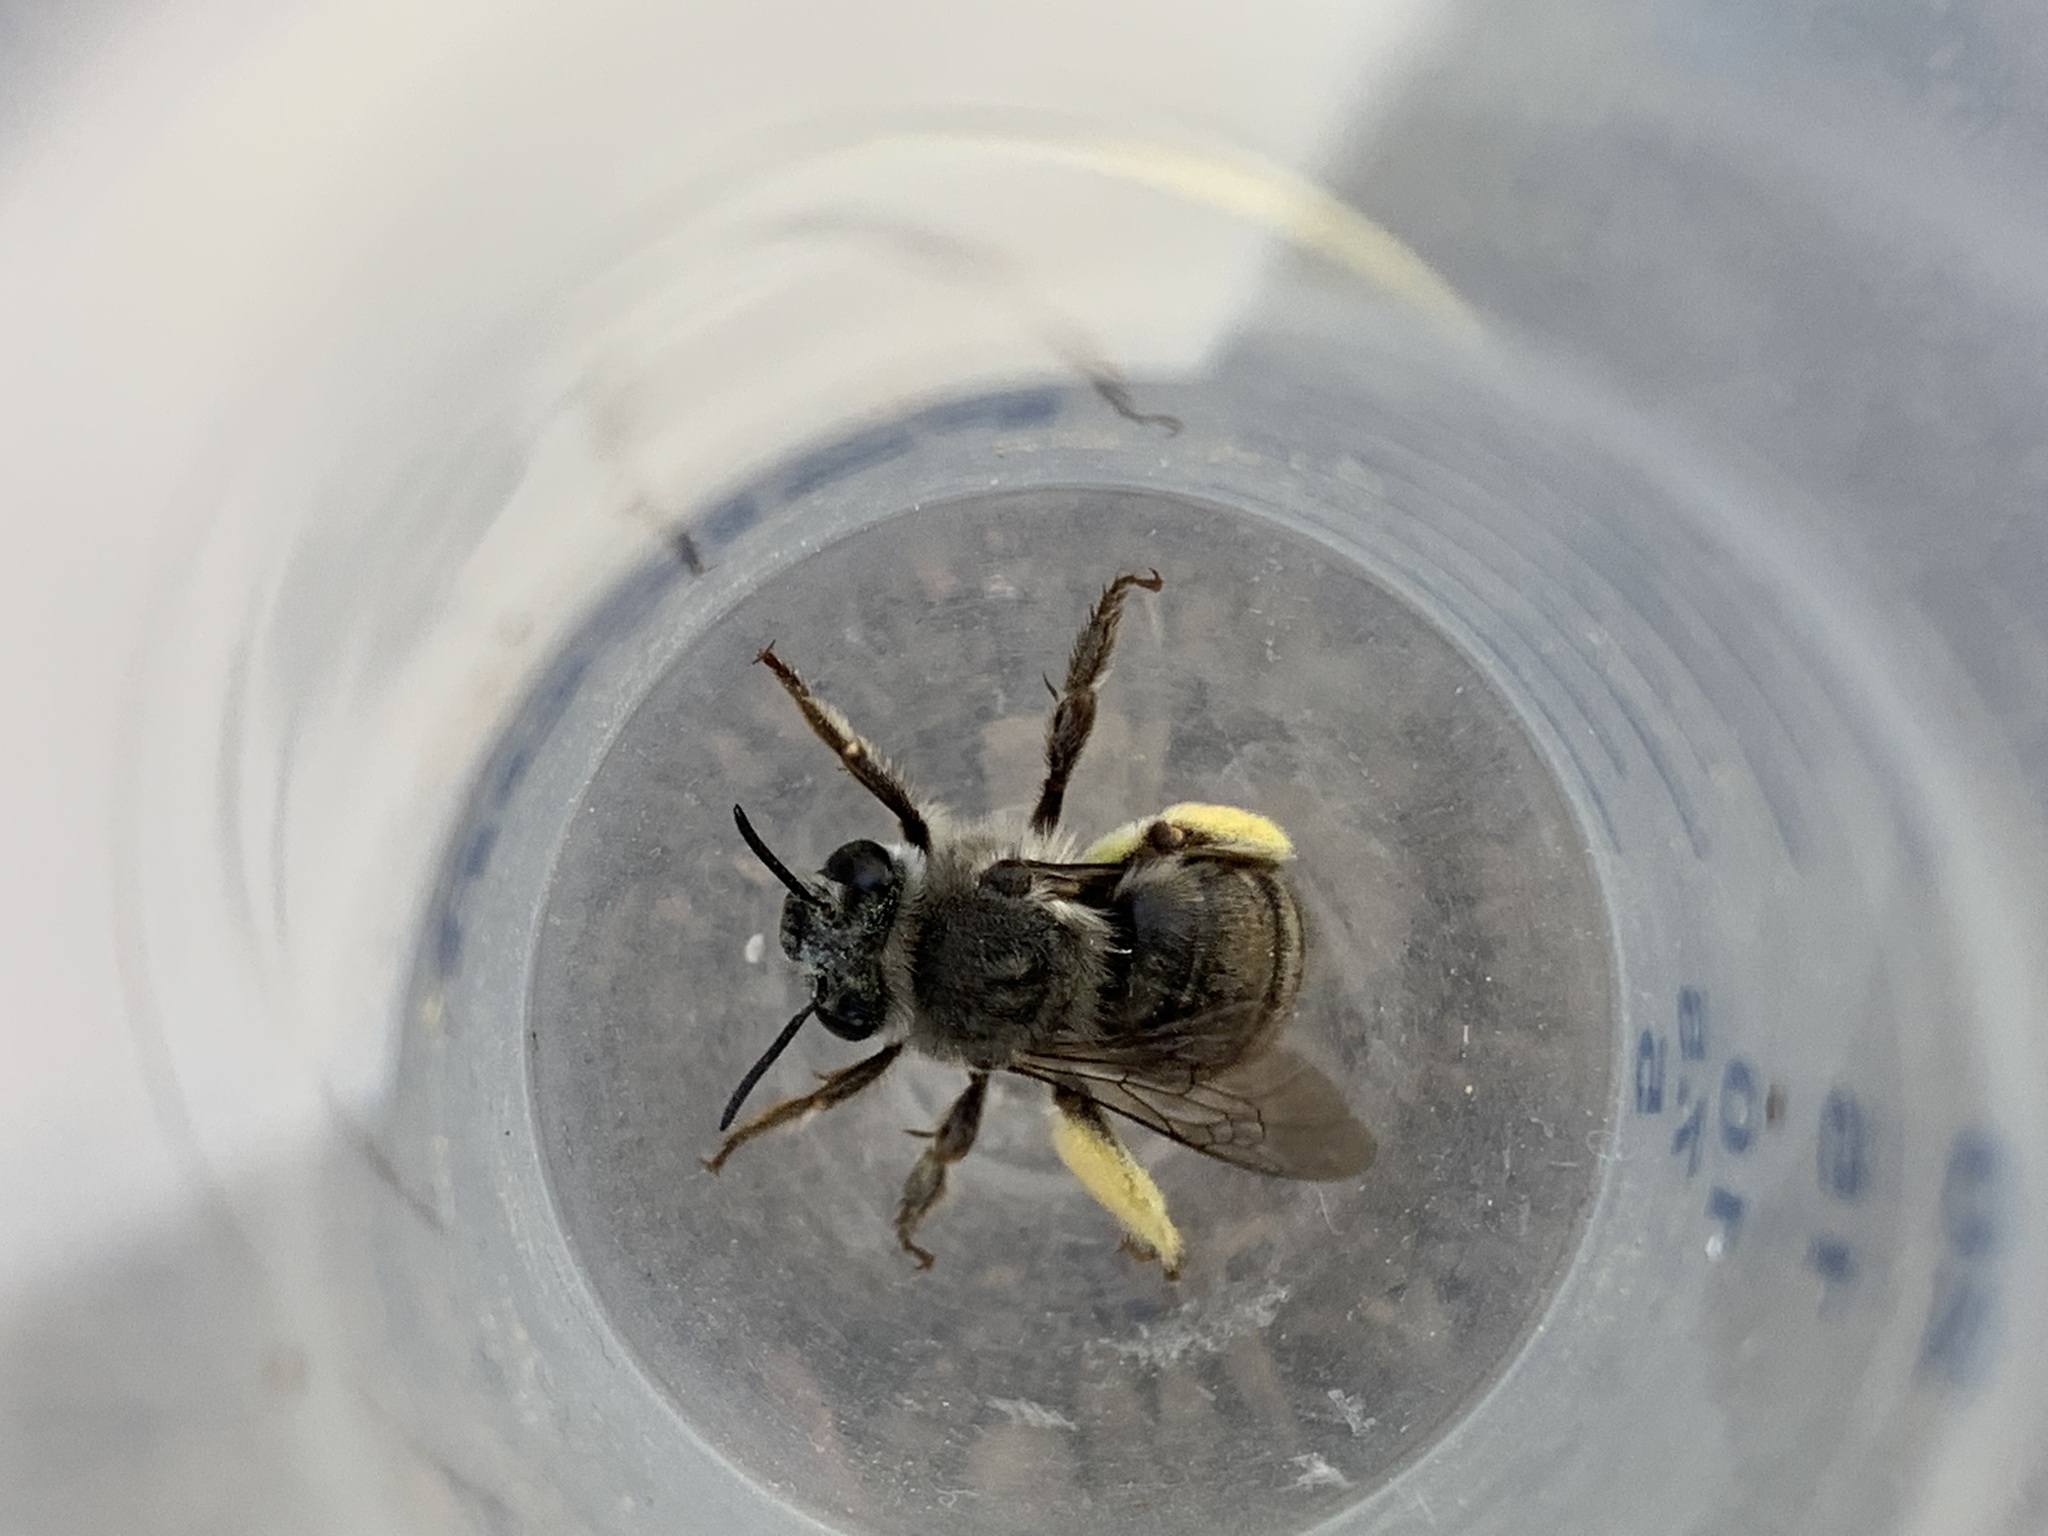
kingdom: Animalia
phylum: Arthropoda
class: Insecta
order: Hymenoptera
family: Apidae
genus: Habropoda
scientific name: Habropoda depressa
